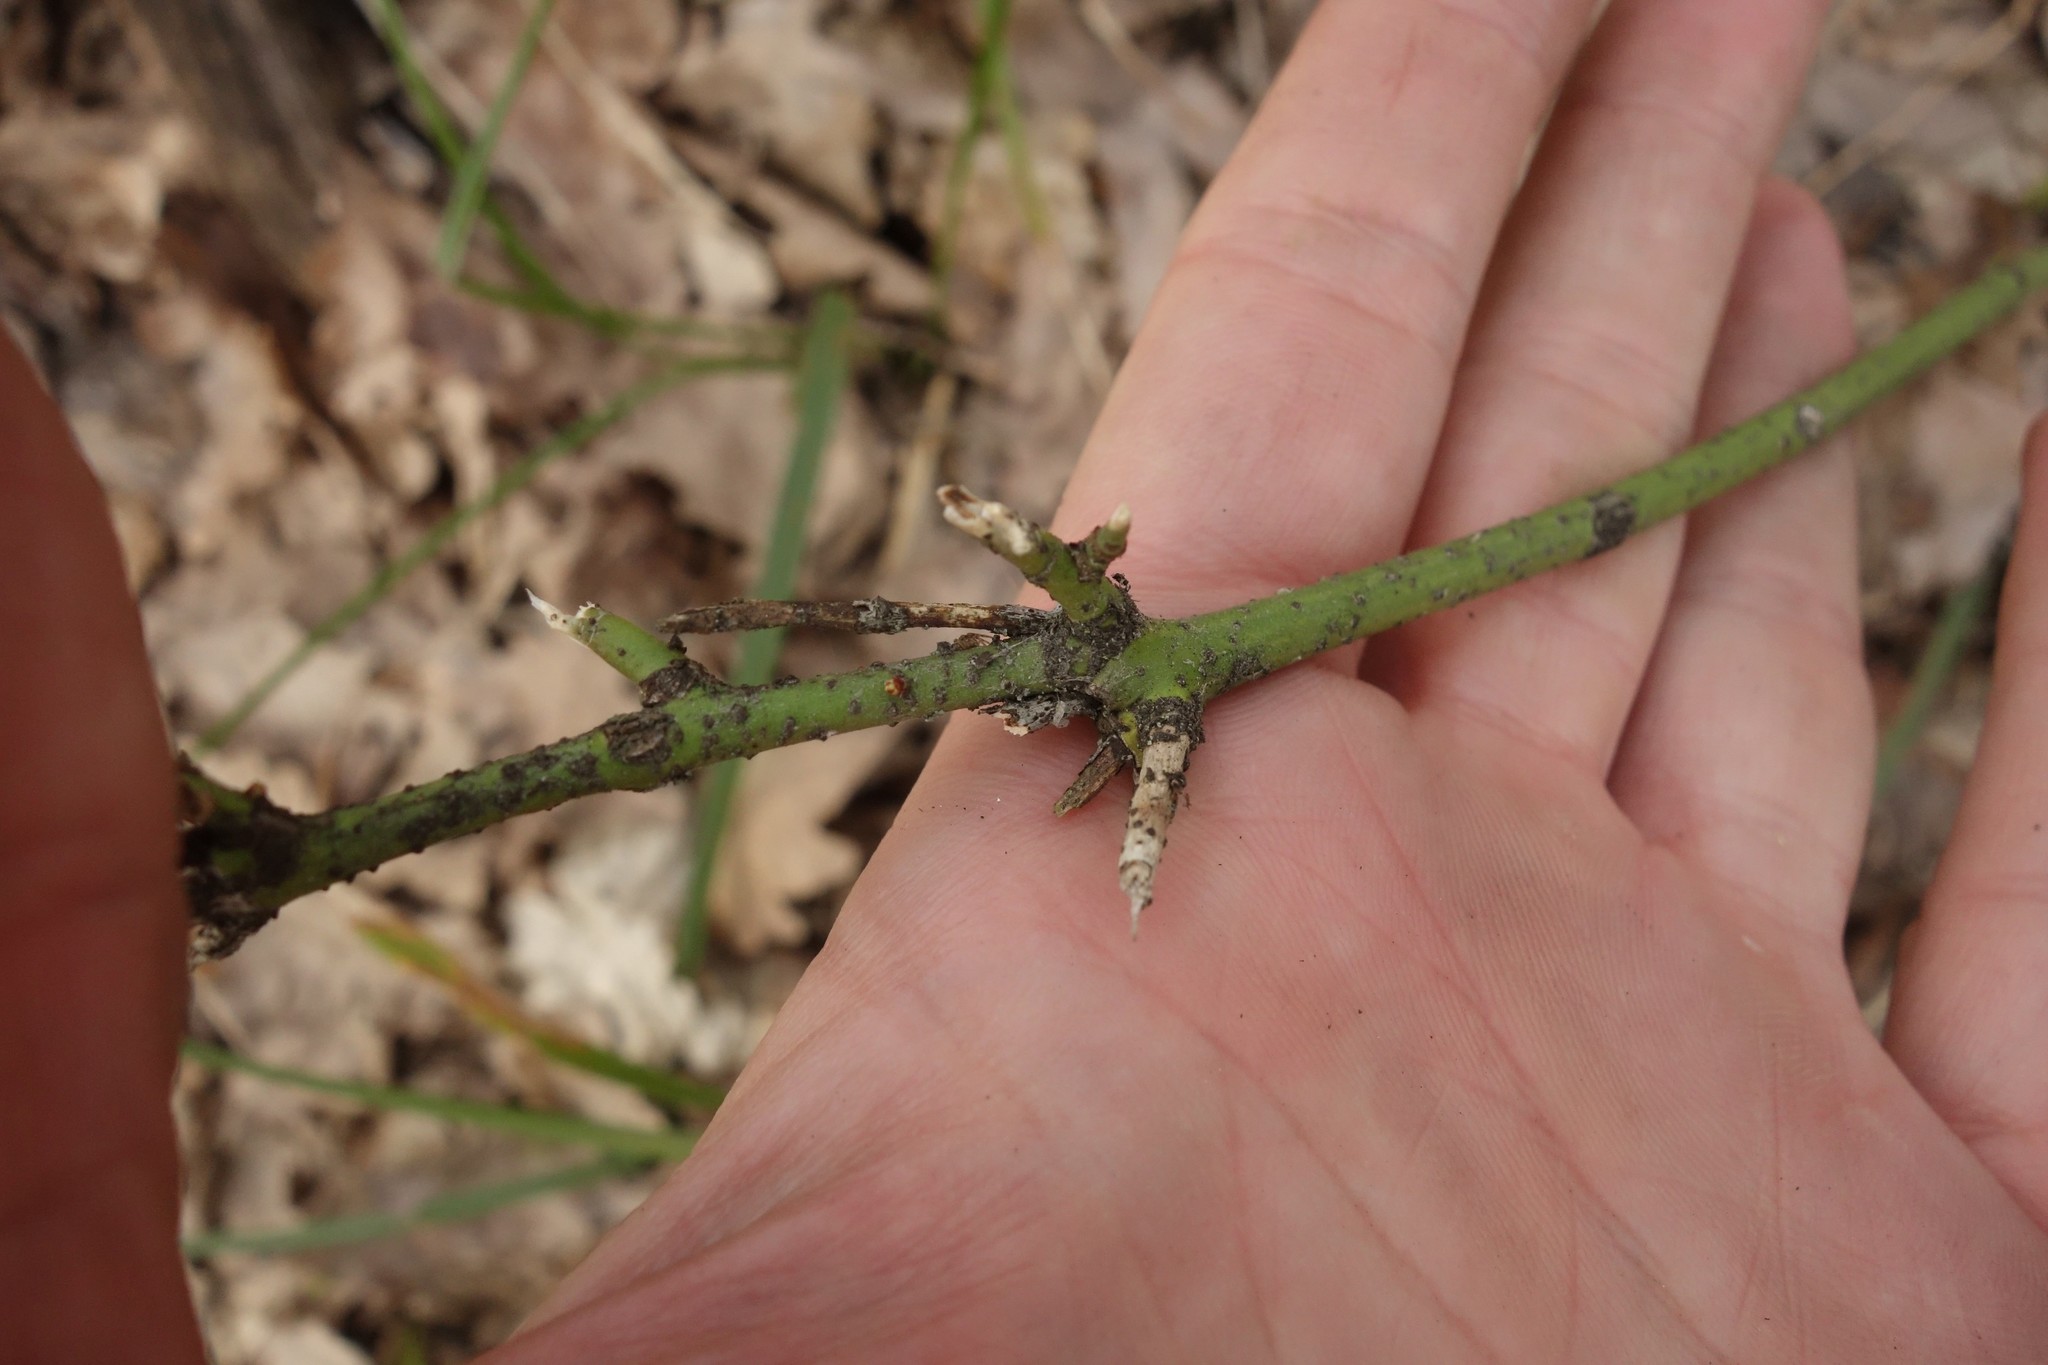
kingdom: Plantae
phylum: Tracheophyta
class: Magnoliopsida
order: Celastrales
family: Celastraceae
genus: Euonymus
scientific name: Euonymus verrucosus
